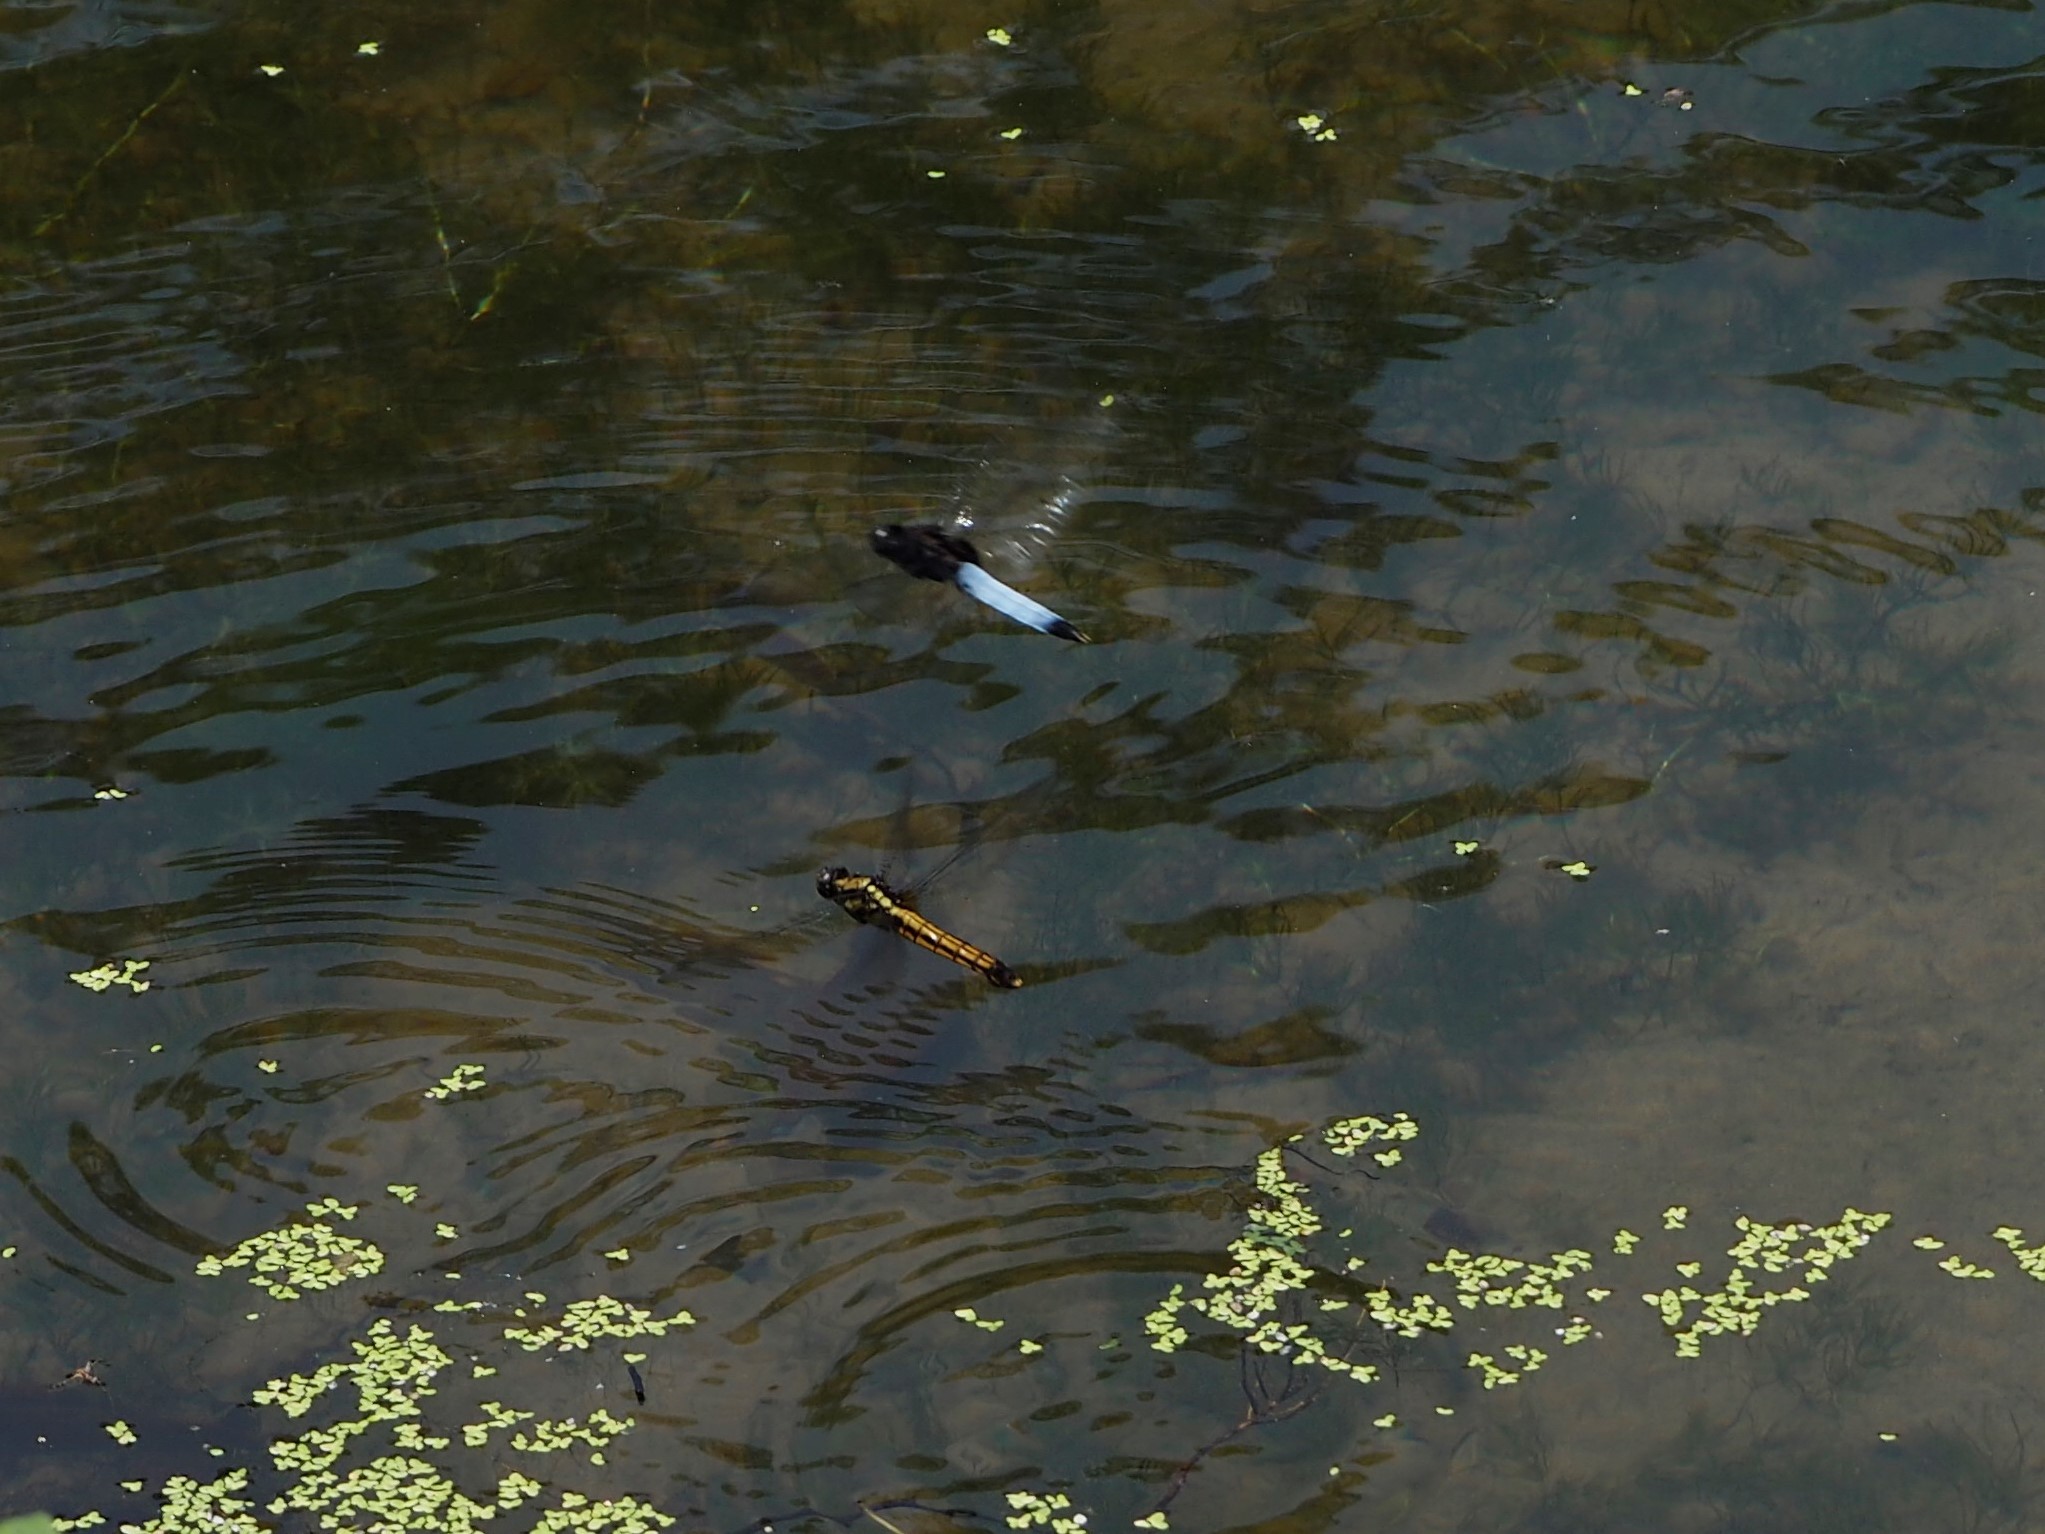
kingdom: Animalia
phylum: Arthropoda
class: Insecta
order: Odonata
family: Libellulidae
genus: Orthetrum
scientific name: Orthetrum triangulare
